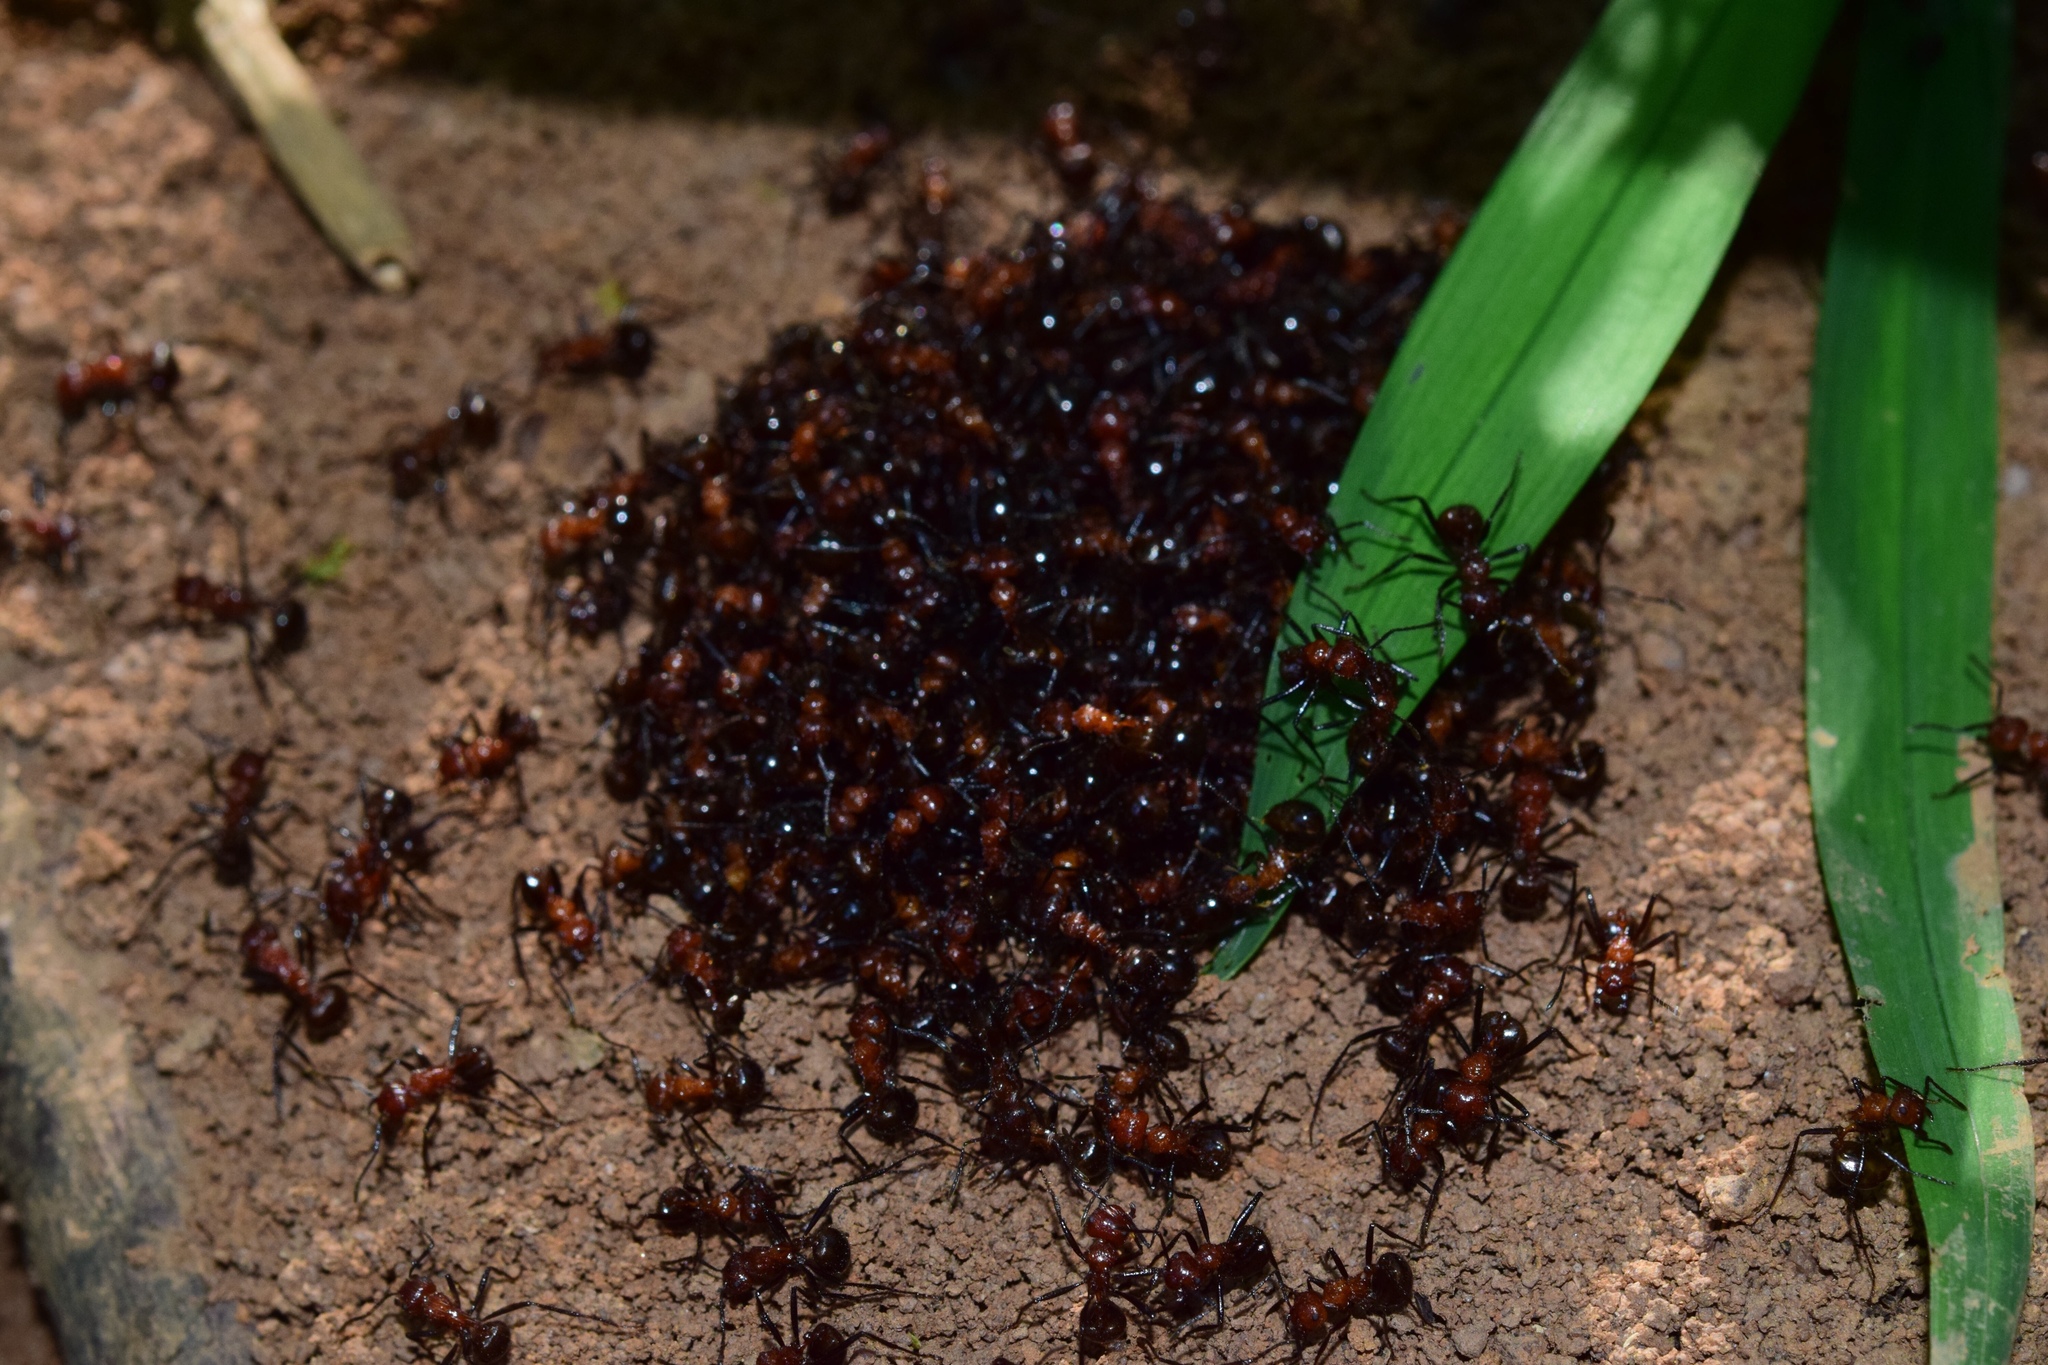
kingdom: Animalia
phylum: Arthropoda
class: Insecta
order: Hymenoptera
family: Formicidae
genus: Myrmicaria
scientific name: Myrmicaria natalensis
